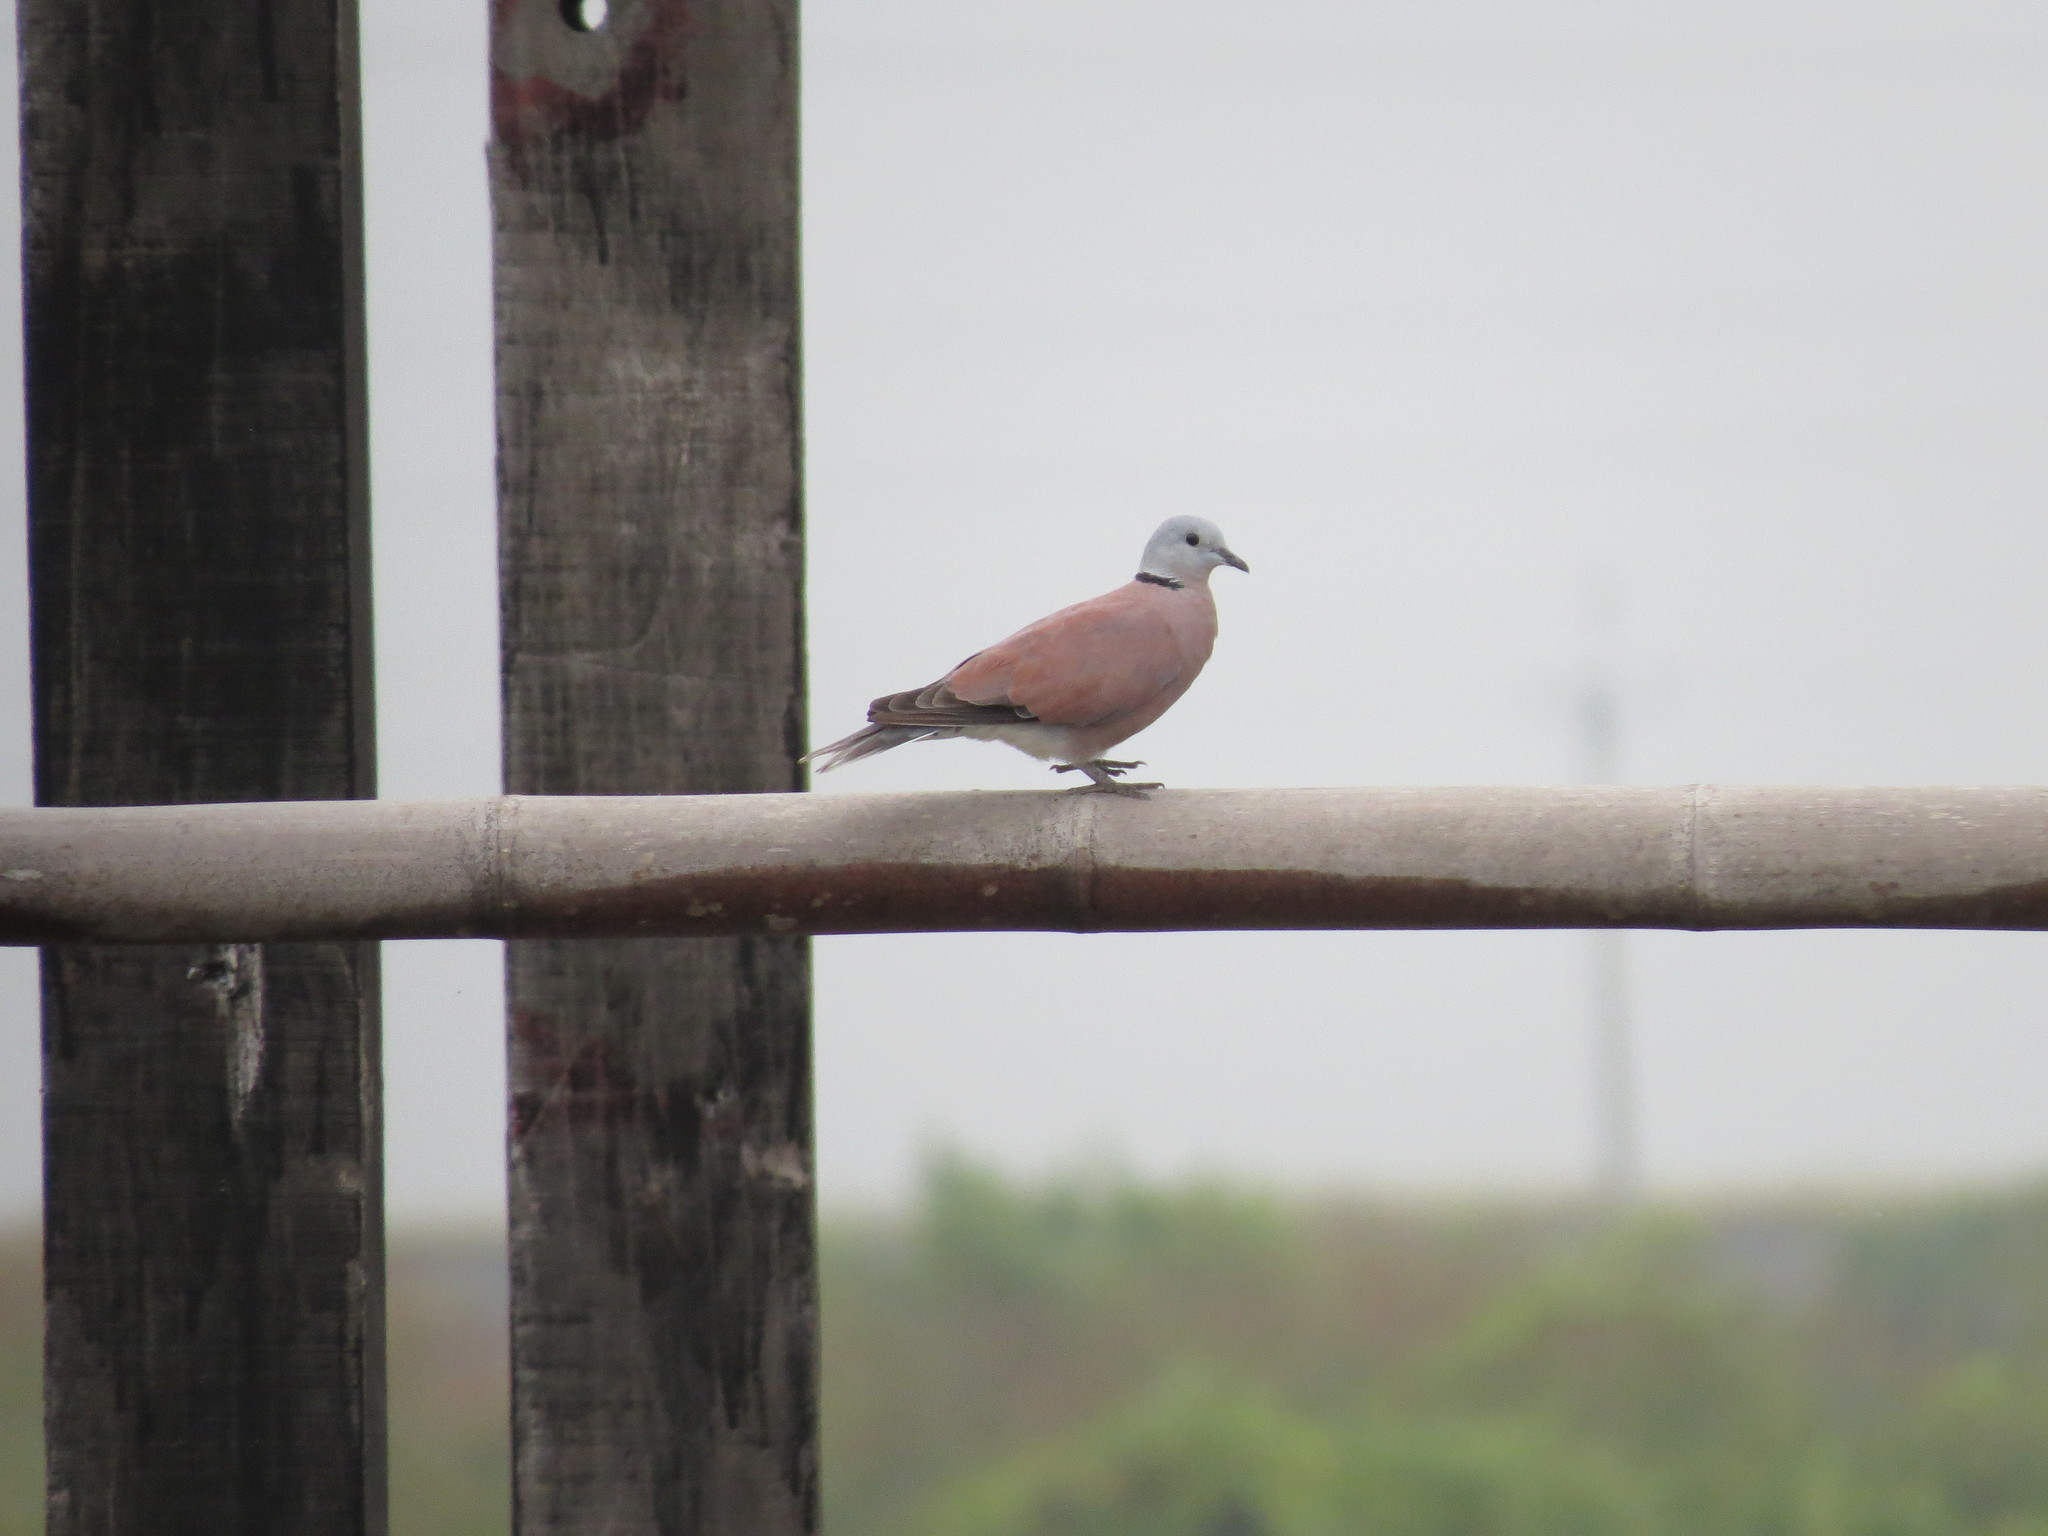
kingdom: Animalia
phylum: Chordata
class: Aves
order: Columbiformes
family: Columbidae
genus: Streptopelia
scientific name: Streptopelia tranquebarica
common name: Red turtle dove
